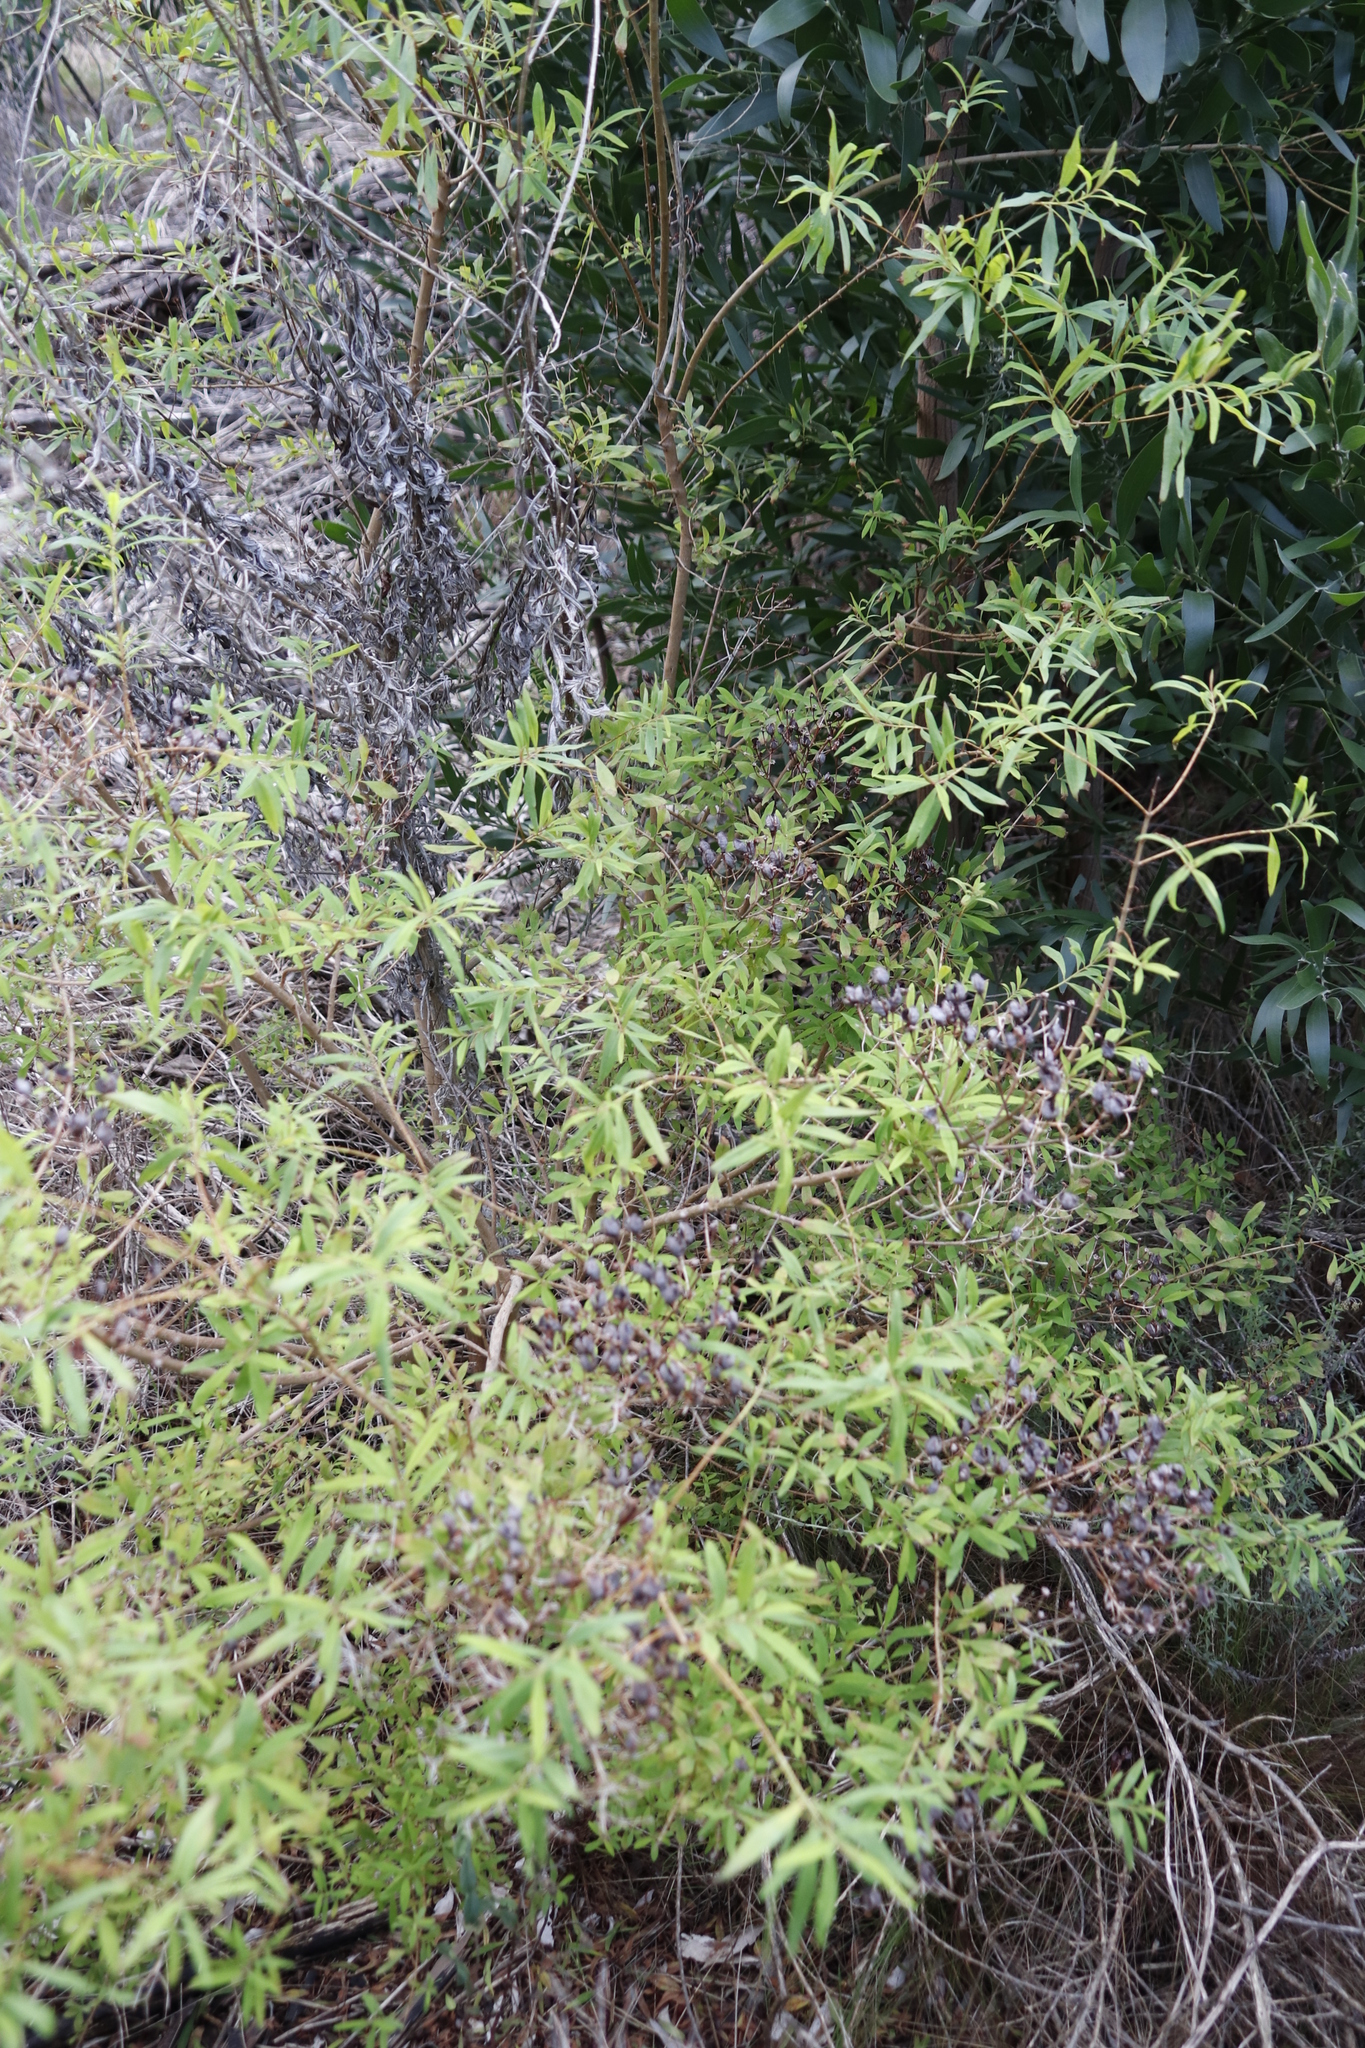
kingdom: Plantae
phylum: Tracheophyta
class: Magnoliopsida
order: Malpighiales
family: Hypericaceae
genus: Hypericum
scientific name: Hypericum canariense
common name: Canary island st. johnswort
